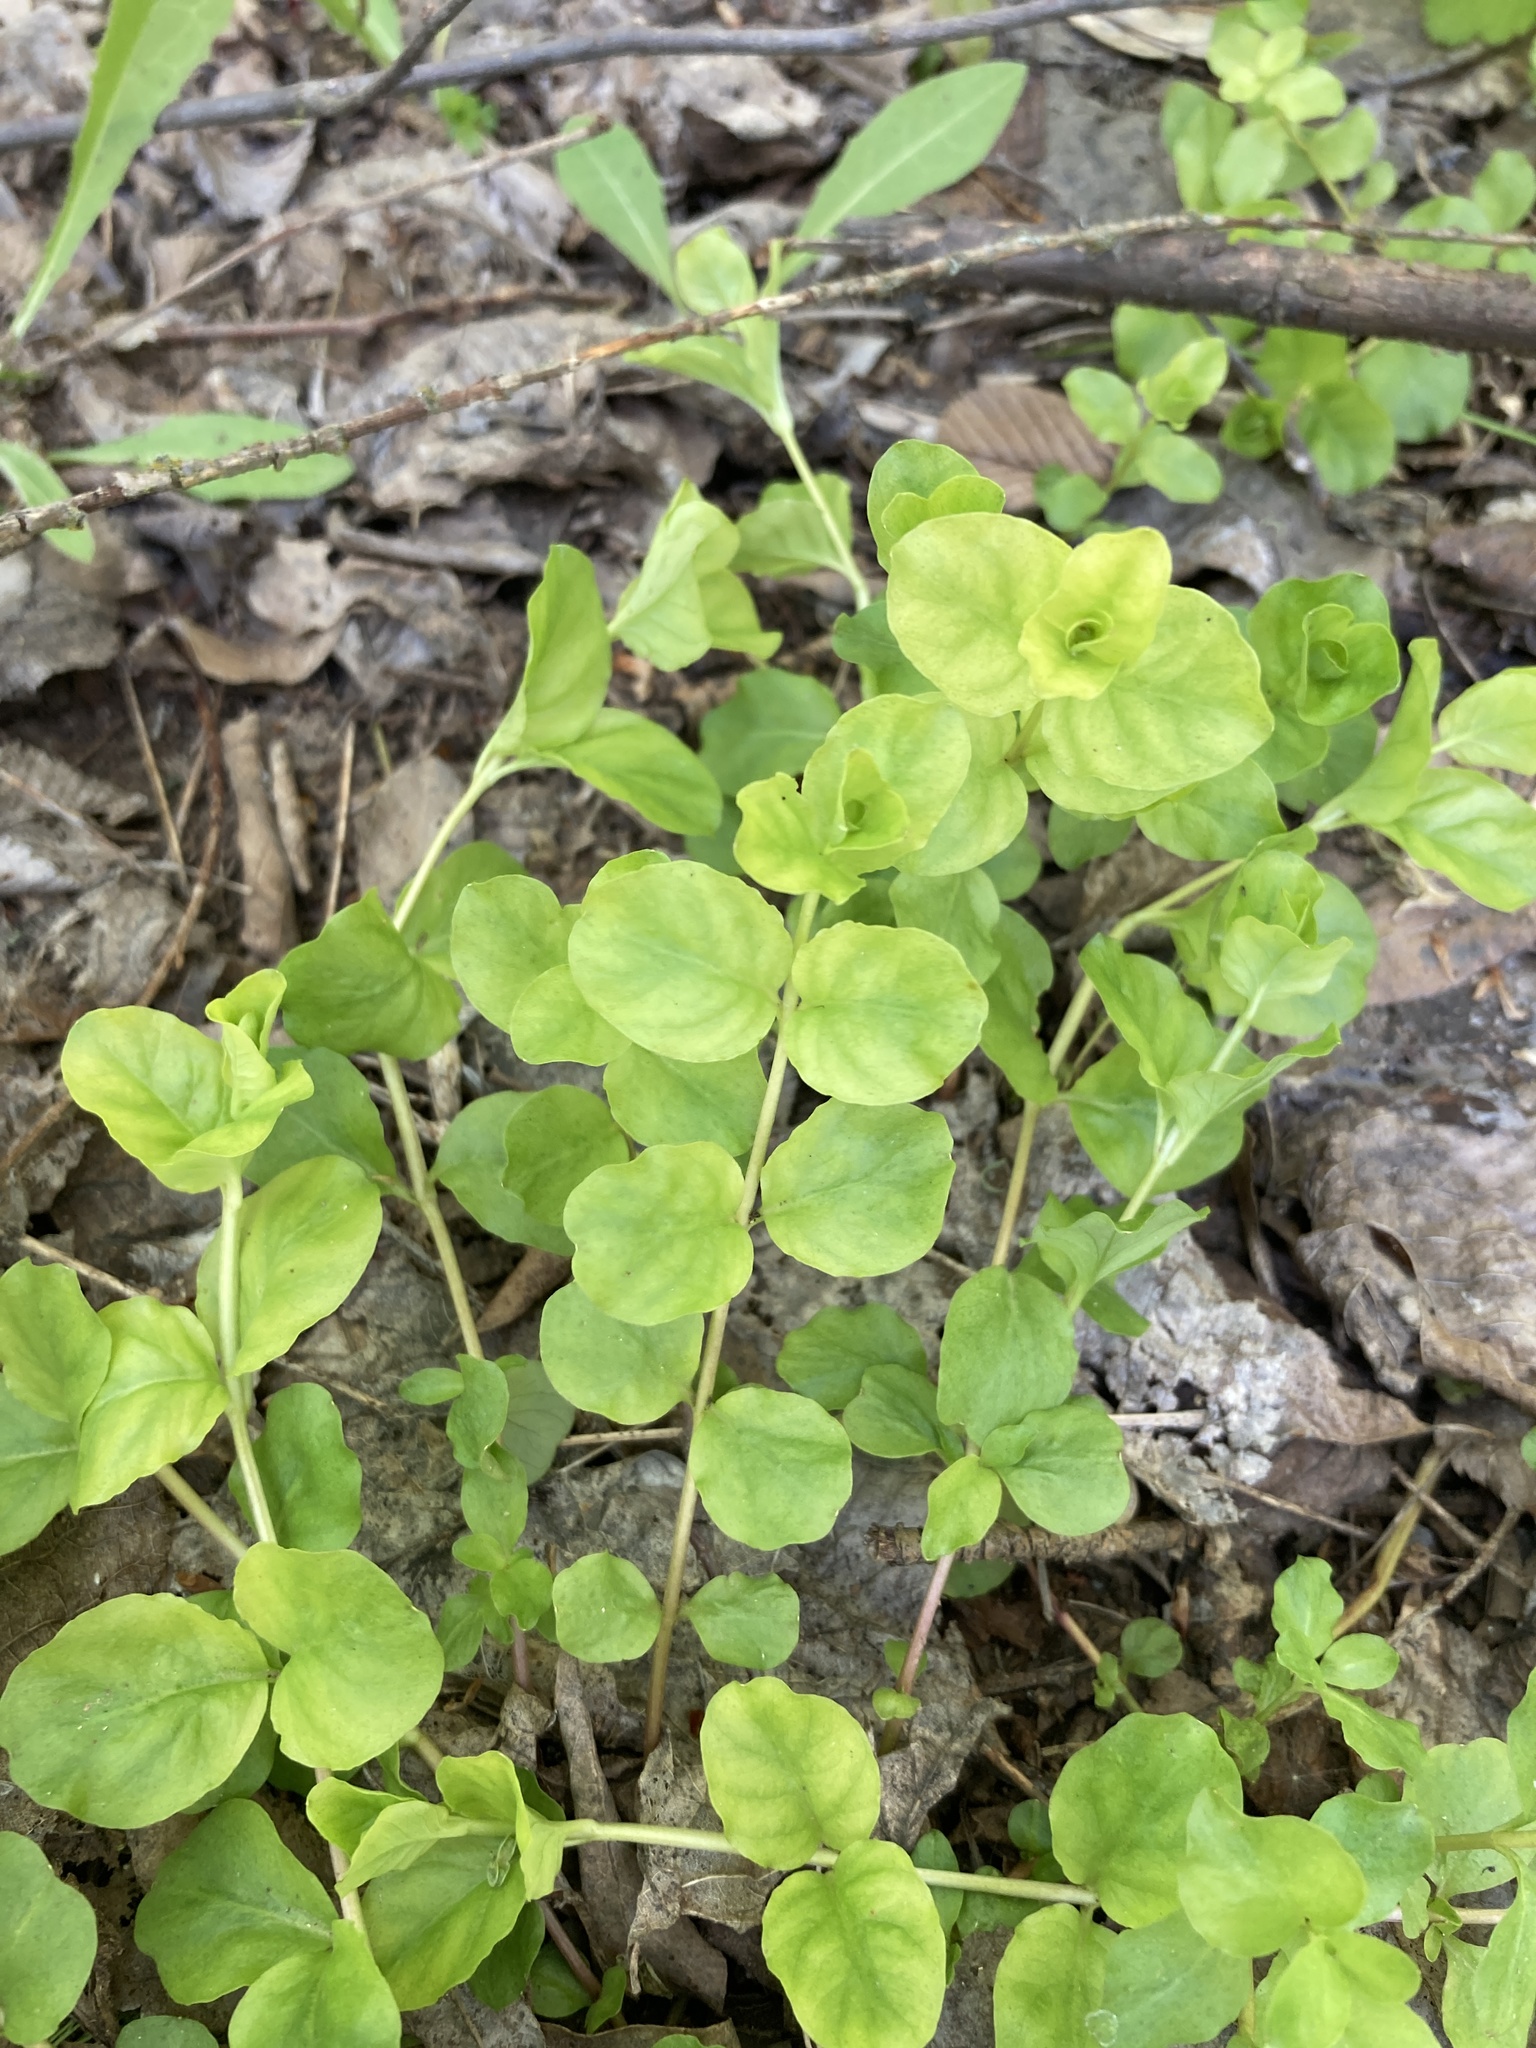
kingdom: Plantae
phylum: Tracheophyta
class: Magnoliopsida
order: Ericales
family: Primulaceae
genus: Lysimachia
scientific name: Lysimachia nummularia
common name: Moneywort
